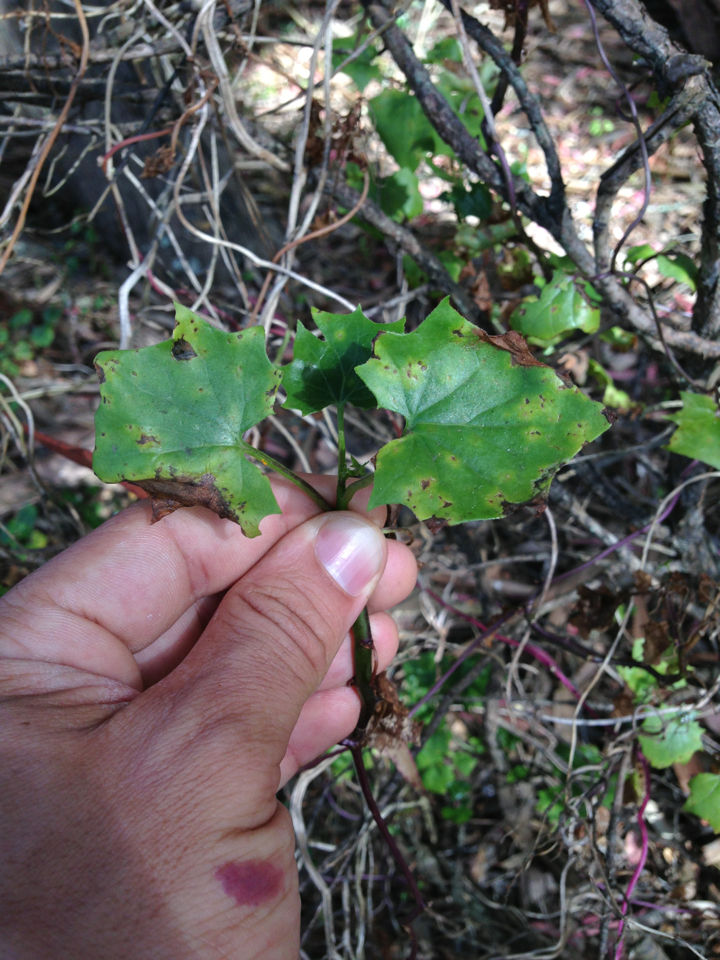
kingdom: Plantae
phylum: Tracheophyta
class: Magnoliopsida
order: Asterales
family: Asteraceae
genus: Delairea
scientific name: Delairea odorata
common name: Cape-ivy
